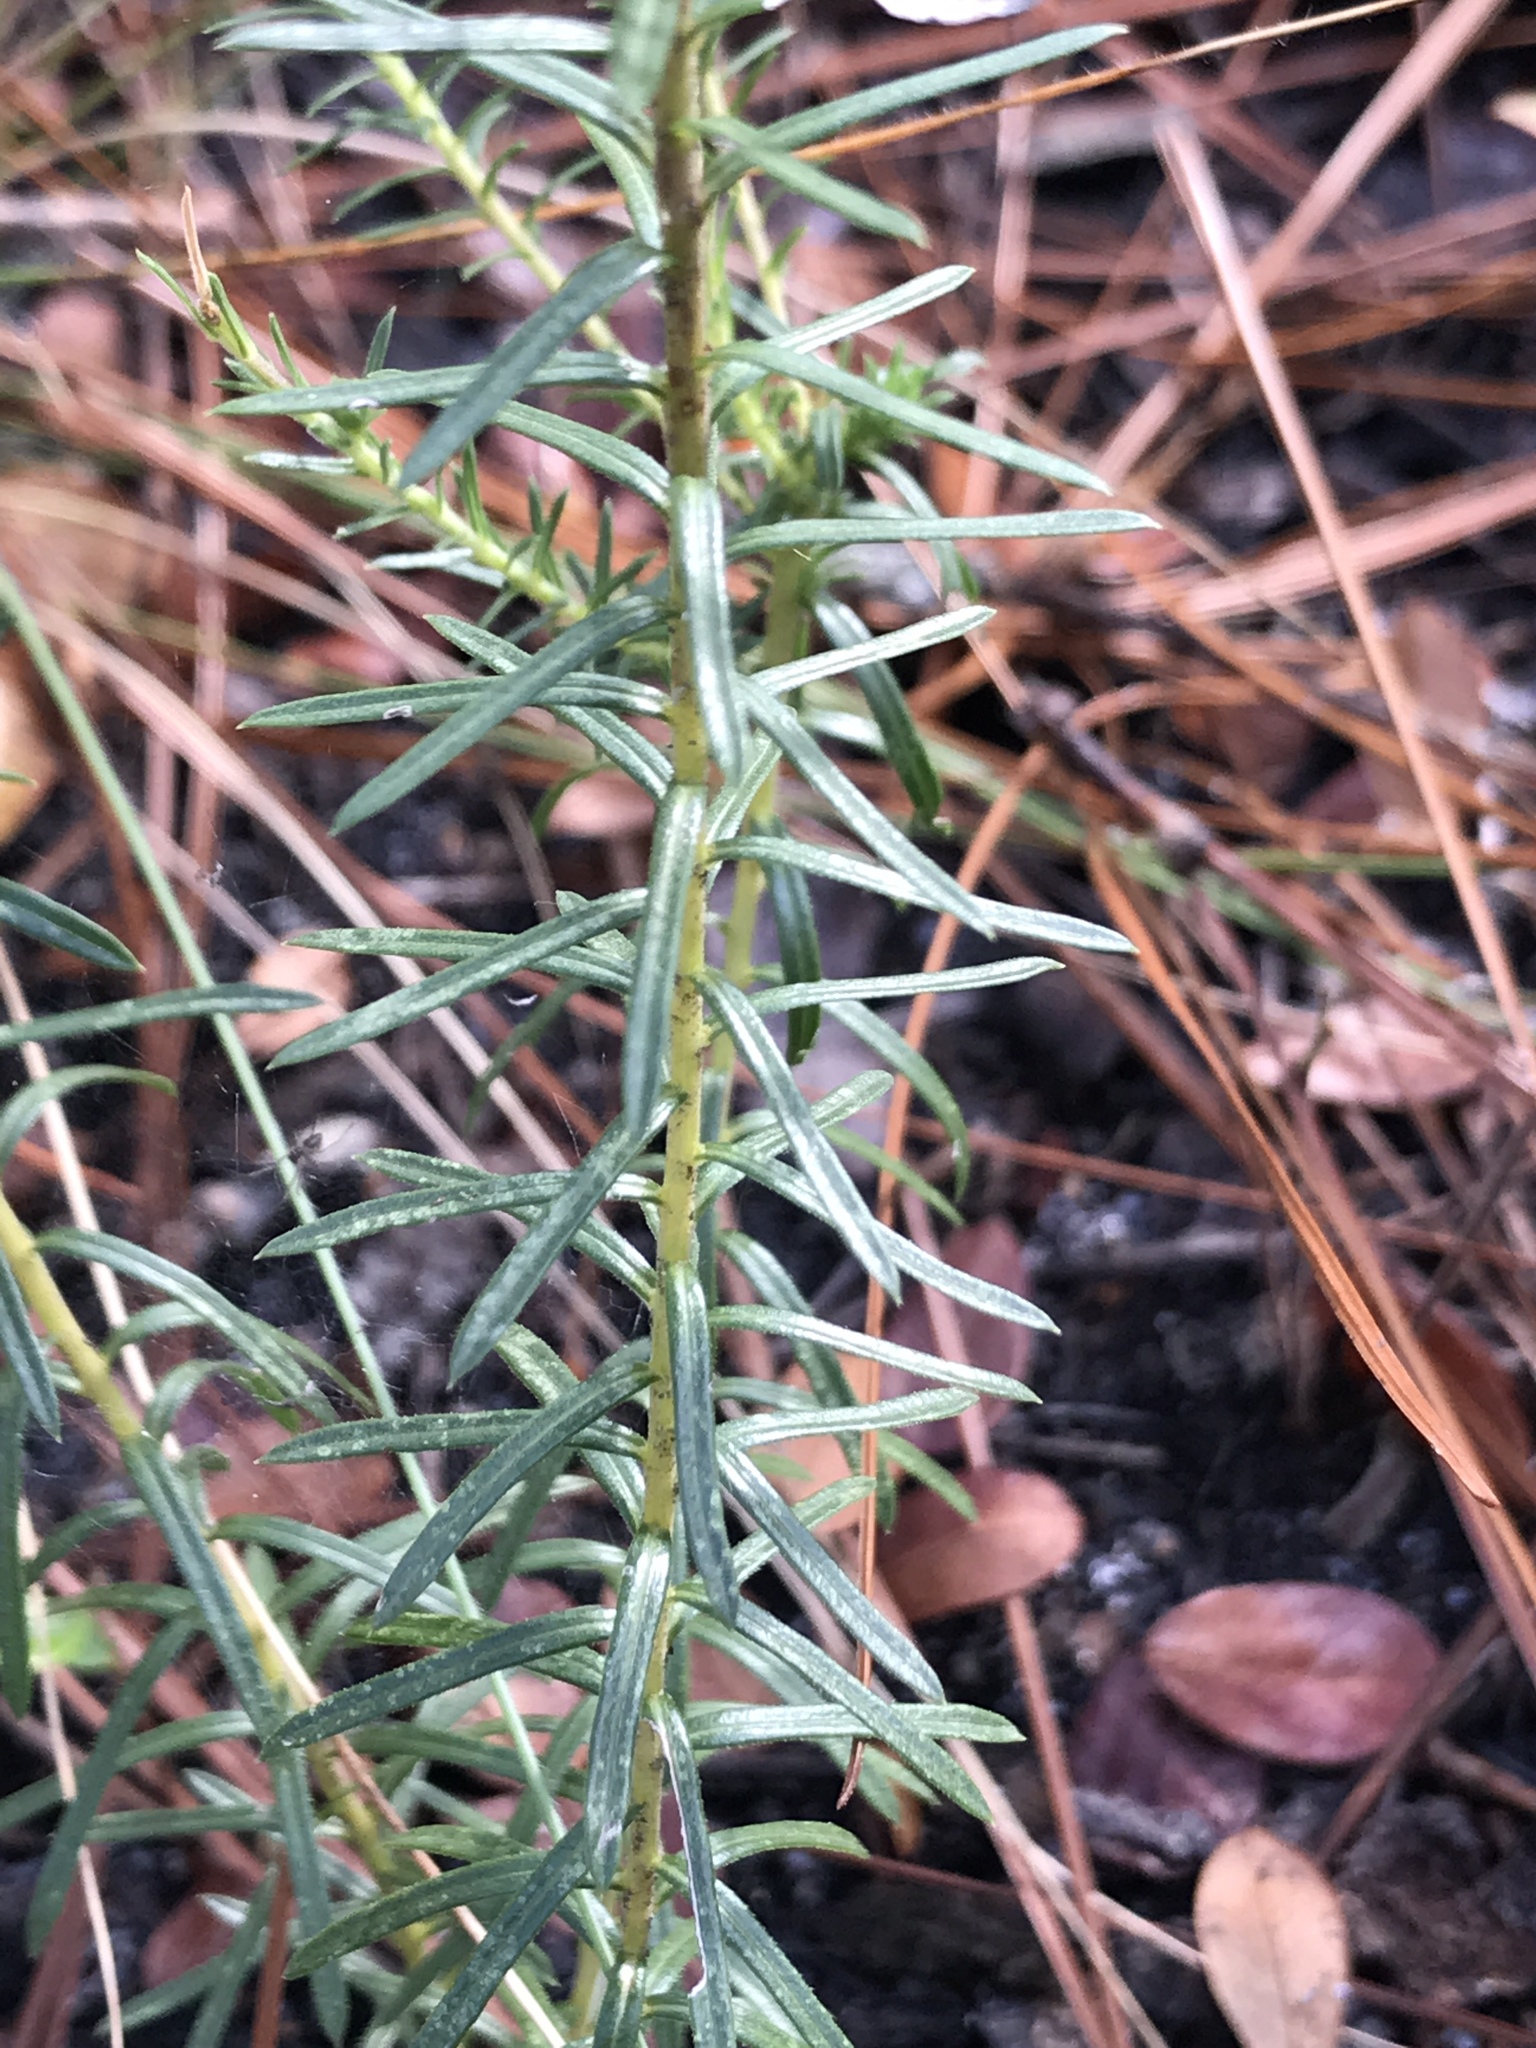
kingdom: Plantae
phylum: Tracheophyta
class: Magnoliopsida
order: Asterales
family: Asteraceae
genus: Ionactis
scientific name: Ionactis linariifolia
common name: Flax-leaf aster
